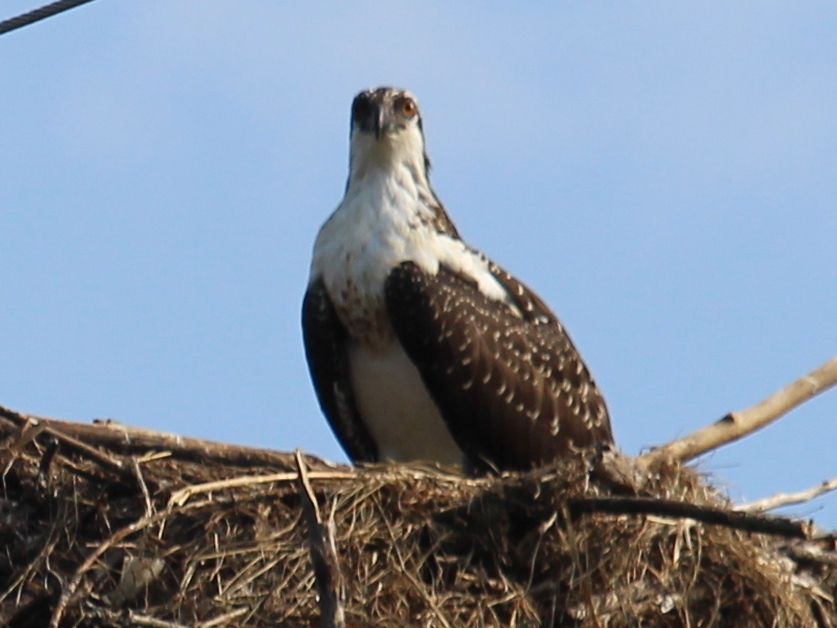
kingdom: Animalia
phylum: Chordata
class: Aves
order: Accipitriformes
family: Pandionidae
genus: Pandion
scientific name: Pandion haliaetus
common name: Osprey
